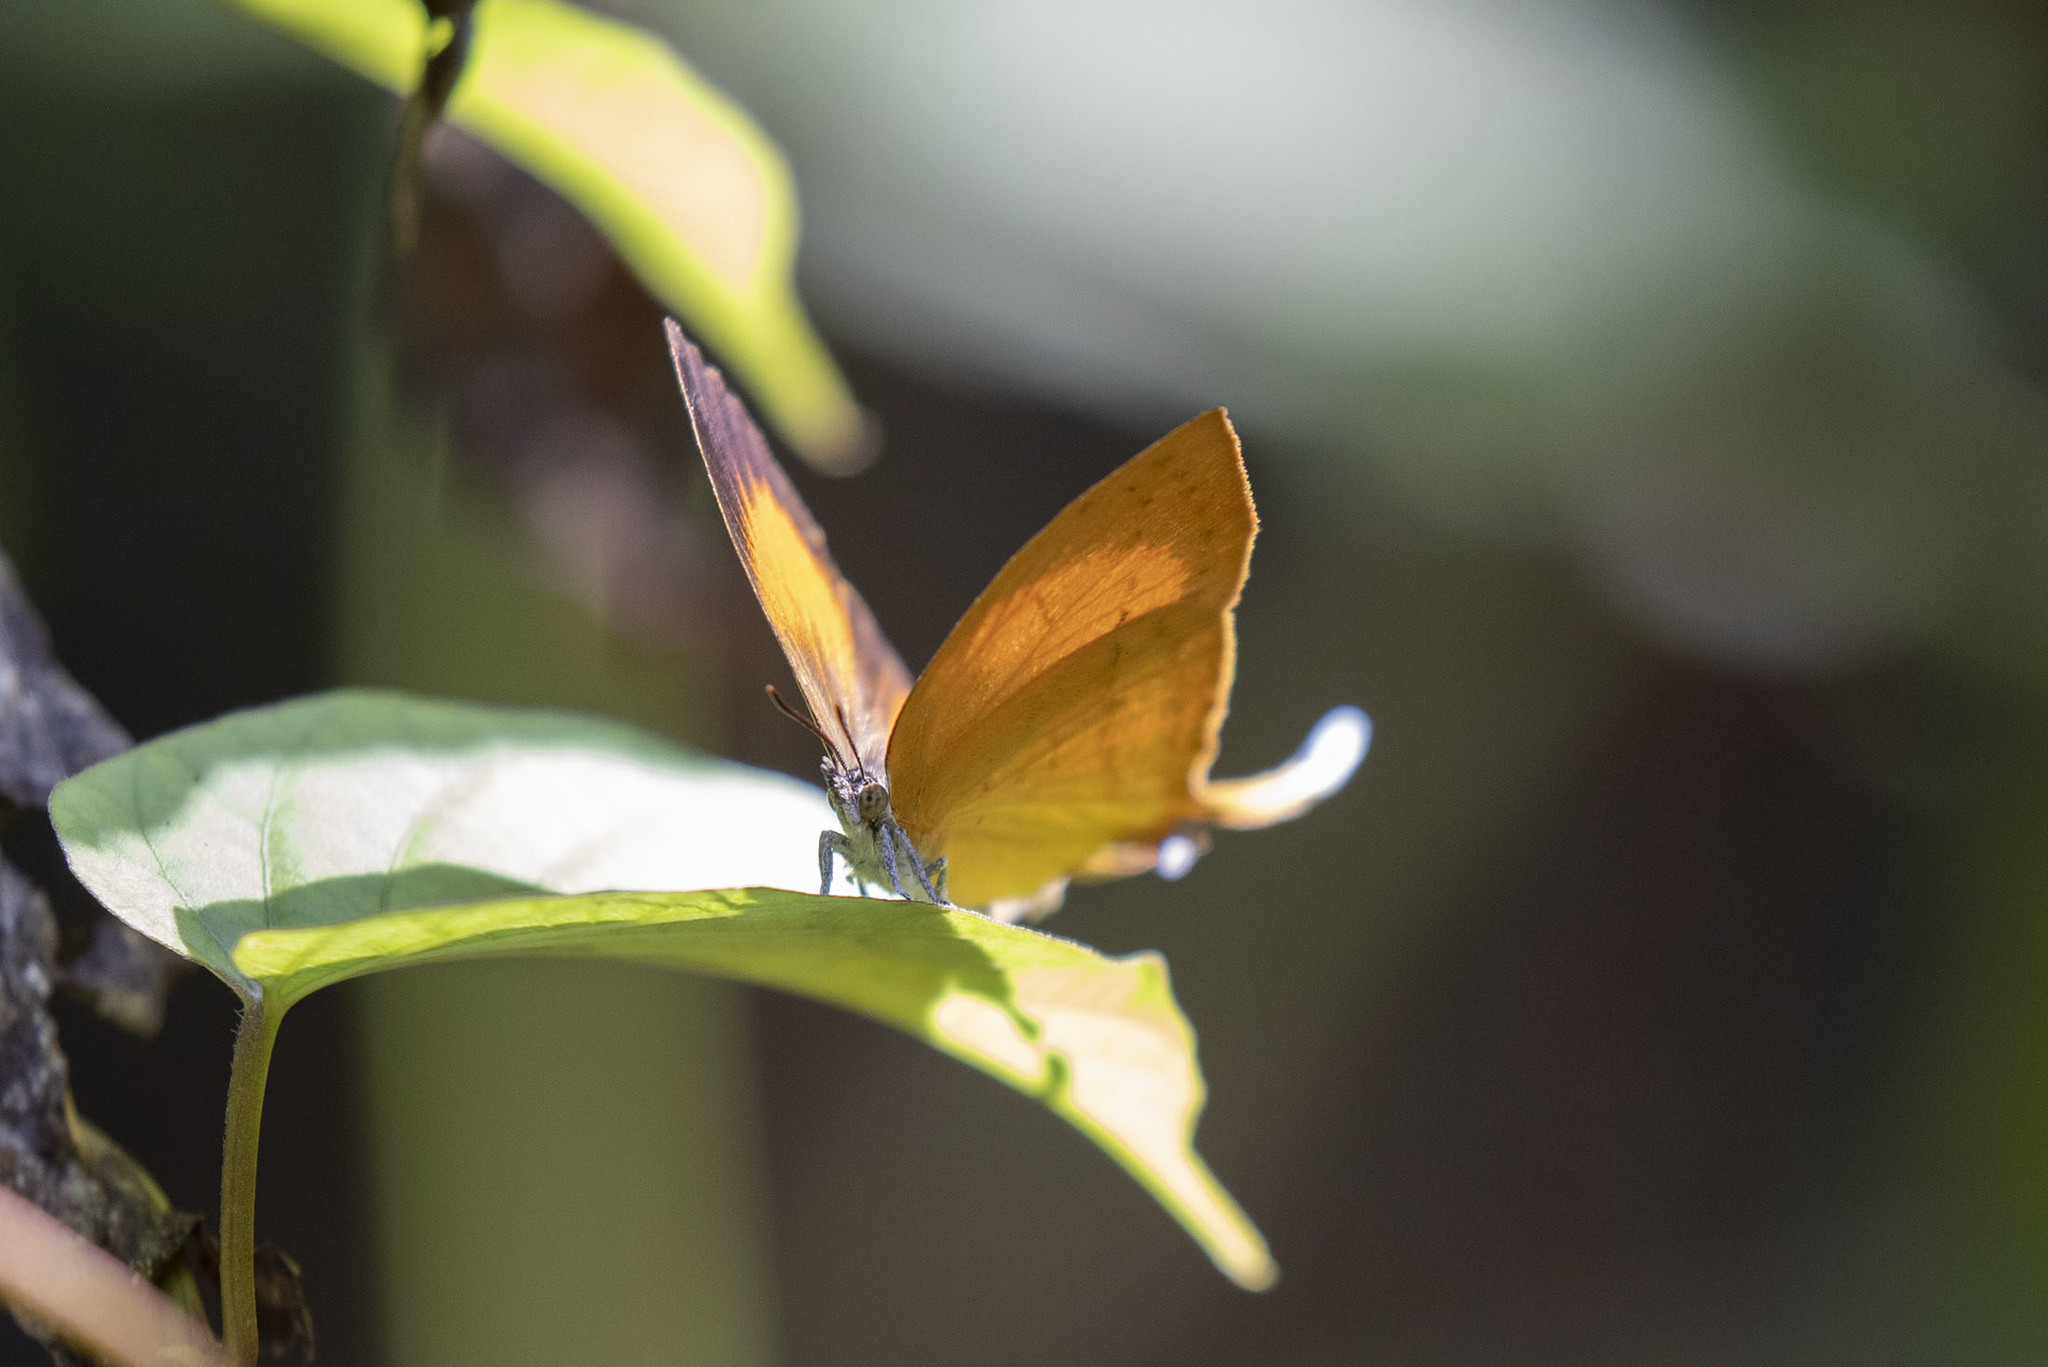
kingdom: Animalia
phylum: Arthropoda
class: Insecta
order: Lepidoptera
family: Lycaenidae
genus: Loxura
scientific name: Loxura atymnus
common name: Common yamfly
